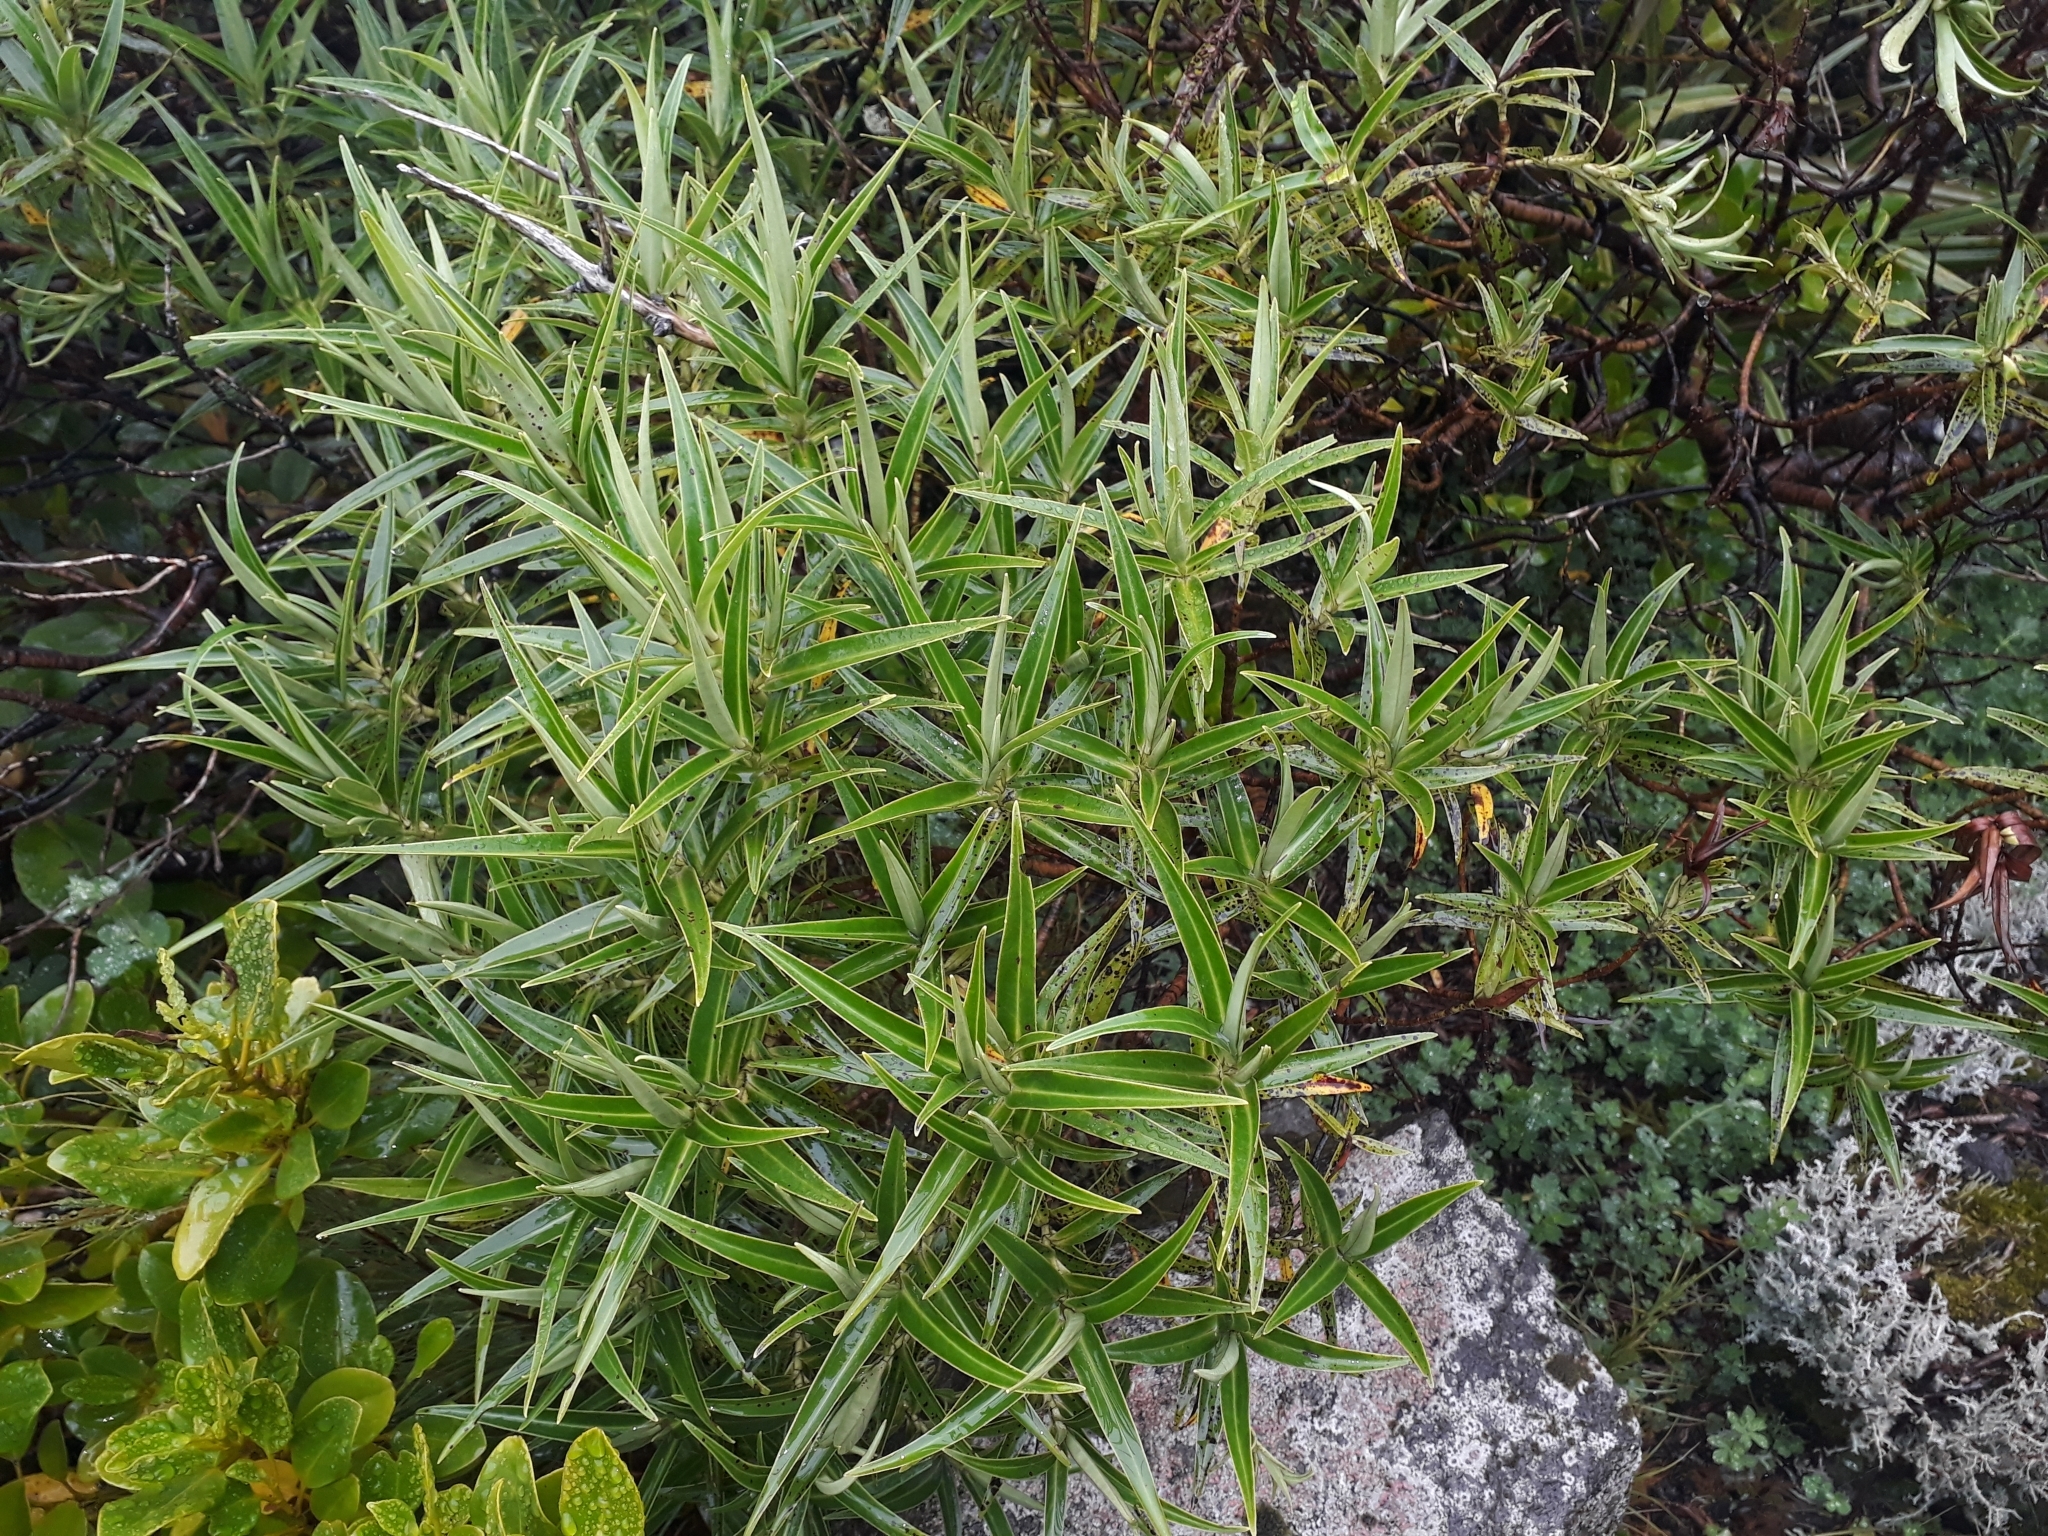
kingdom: Plantae
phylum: Tracheophyta
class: Magnoliopsida
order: Lamiales
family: Plantaginaceae
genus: Veronica
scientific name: Veronica stricta
